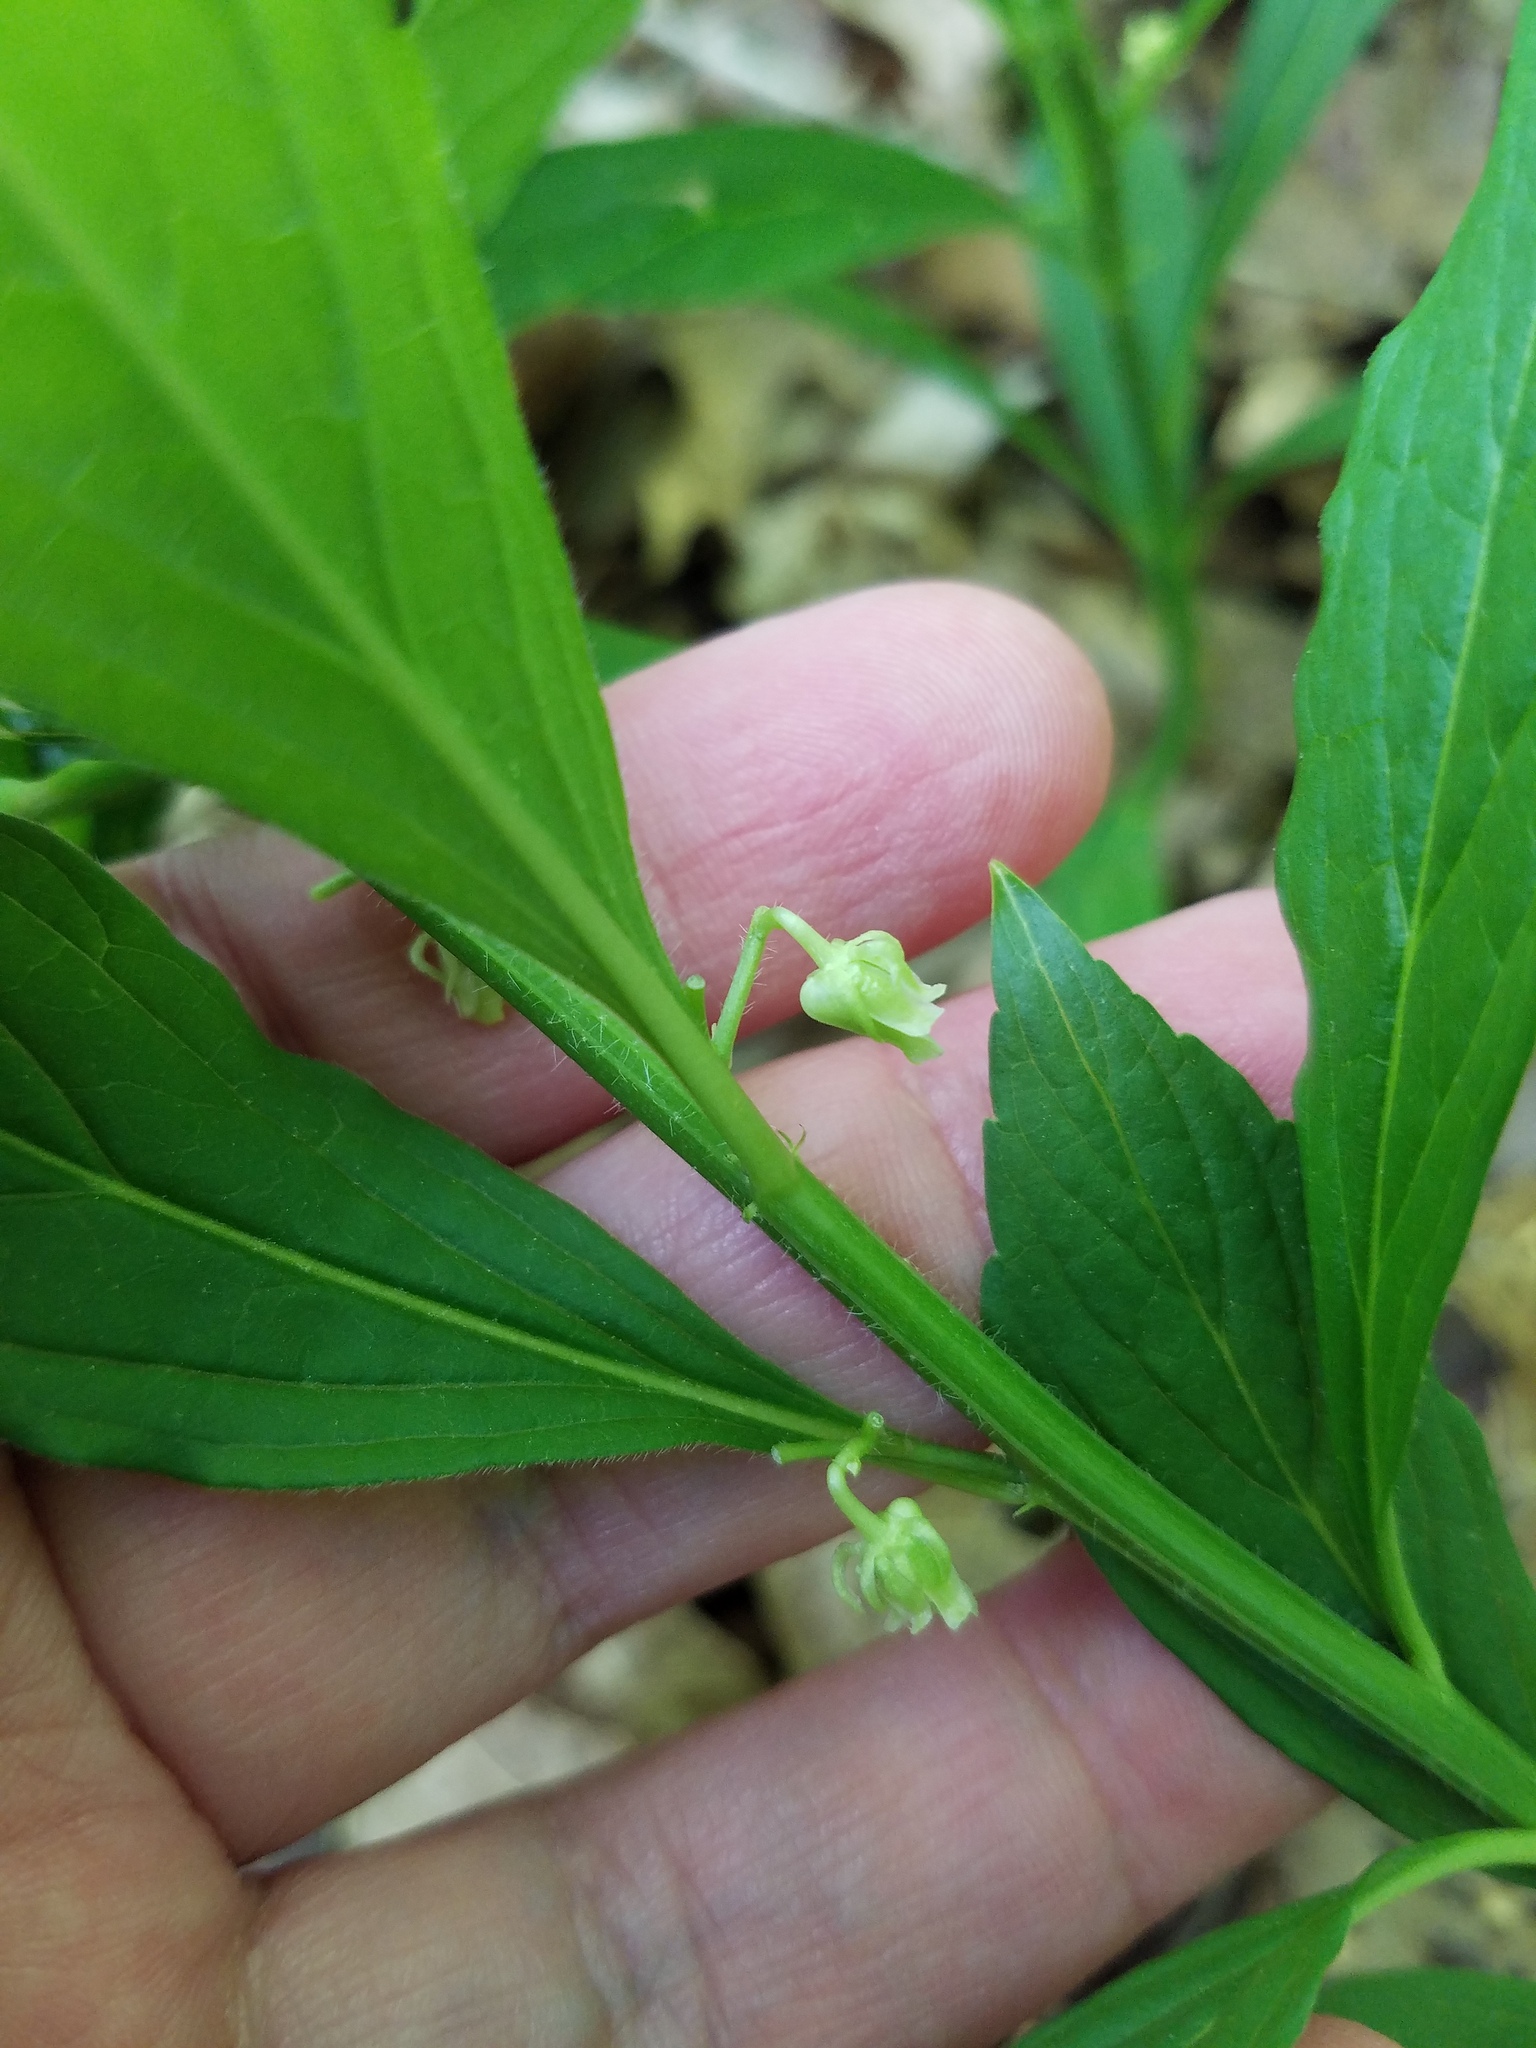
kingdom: Plantae
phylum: Tracheophyta
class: Magnoliopsida
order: Malpighiales
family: Violaceae
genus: Cubelium
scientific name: Cubelium concolor
